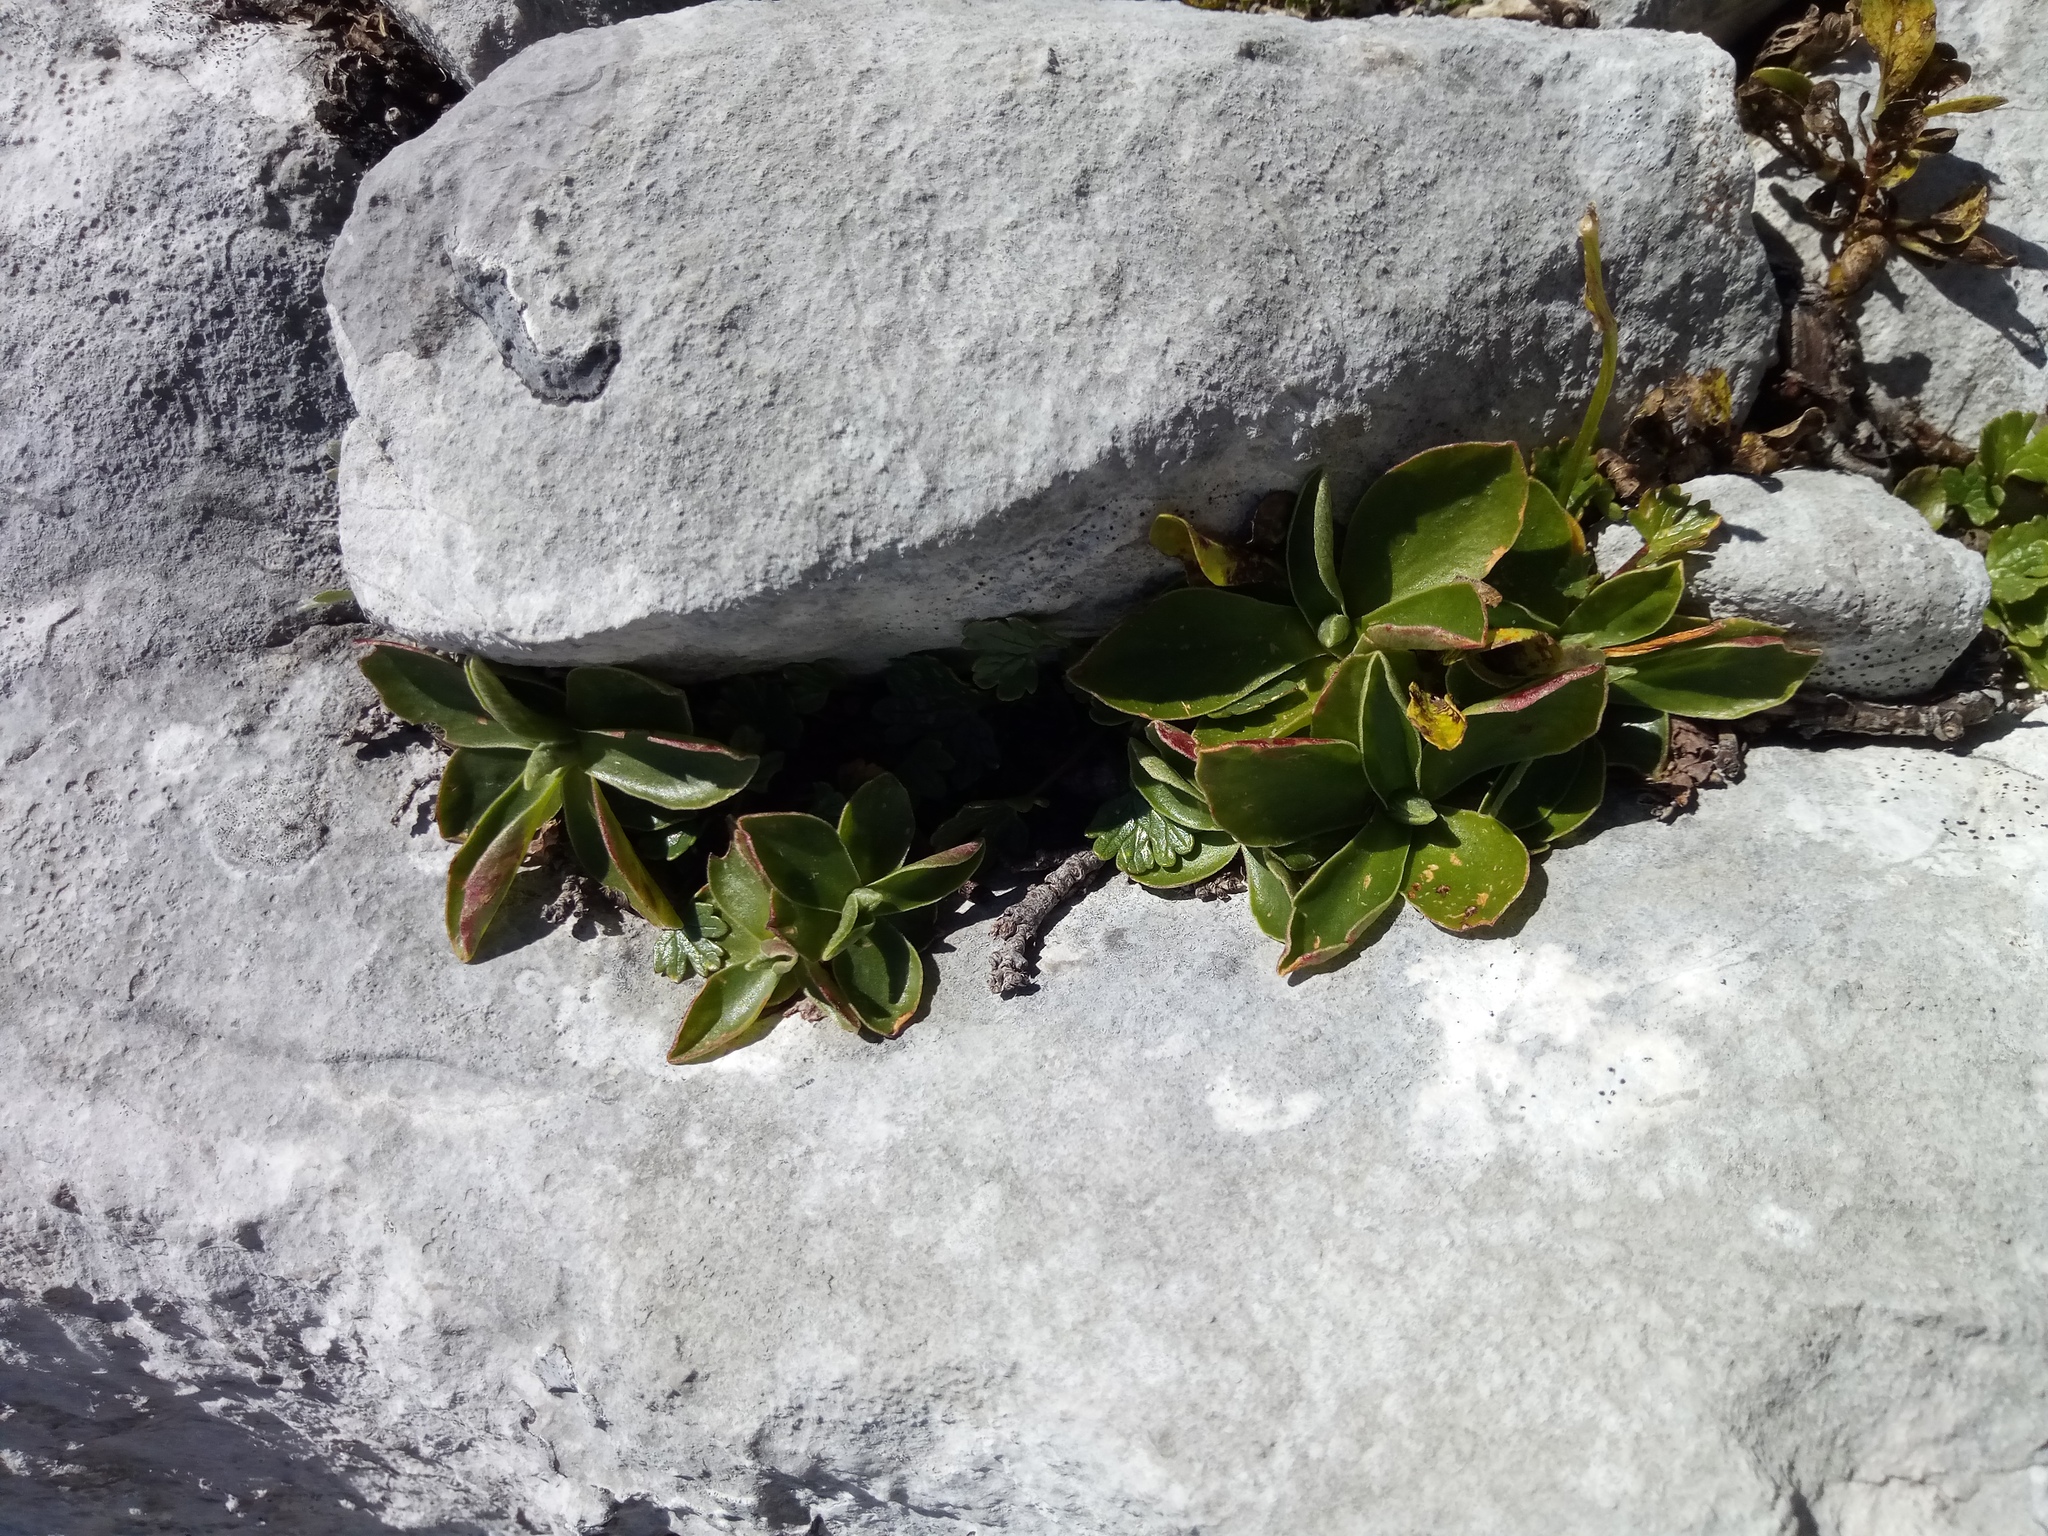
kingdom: Plantae
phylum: Tracheophyta
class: Magnoliopsida
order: Ericales
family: Primulaceae
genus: Primula
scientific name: Primula clusiana
